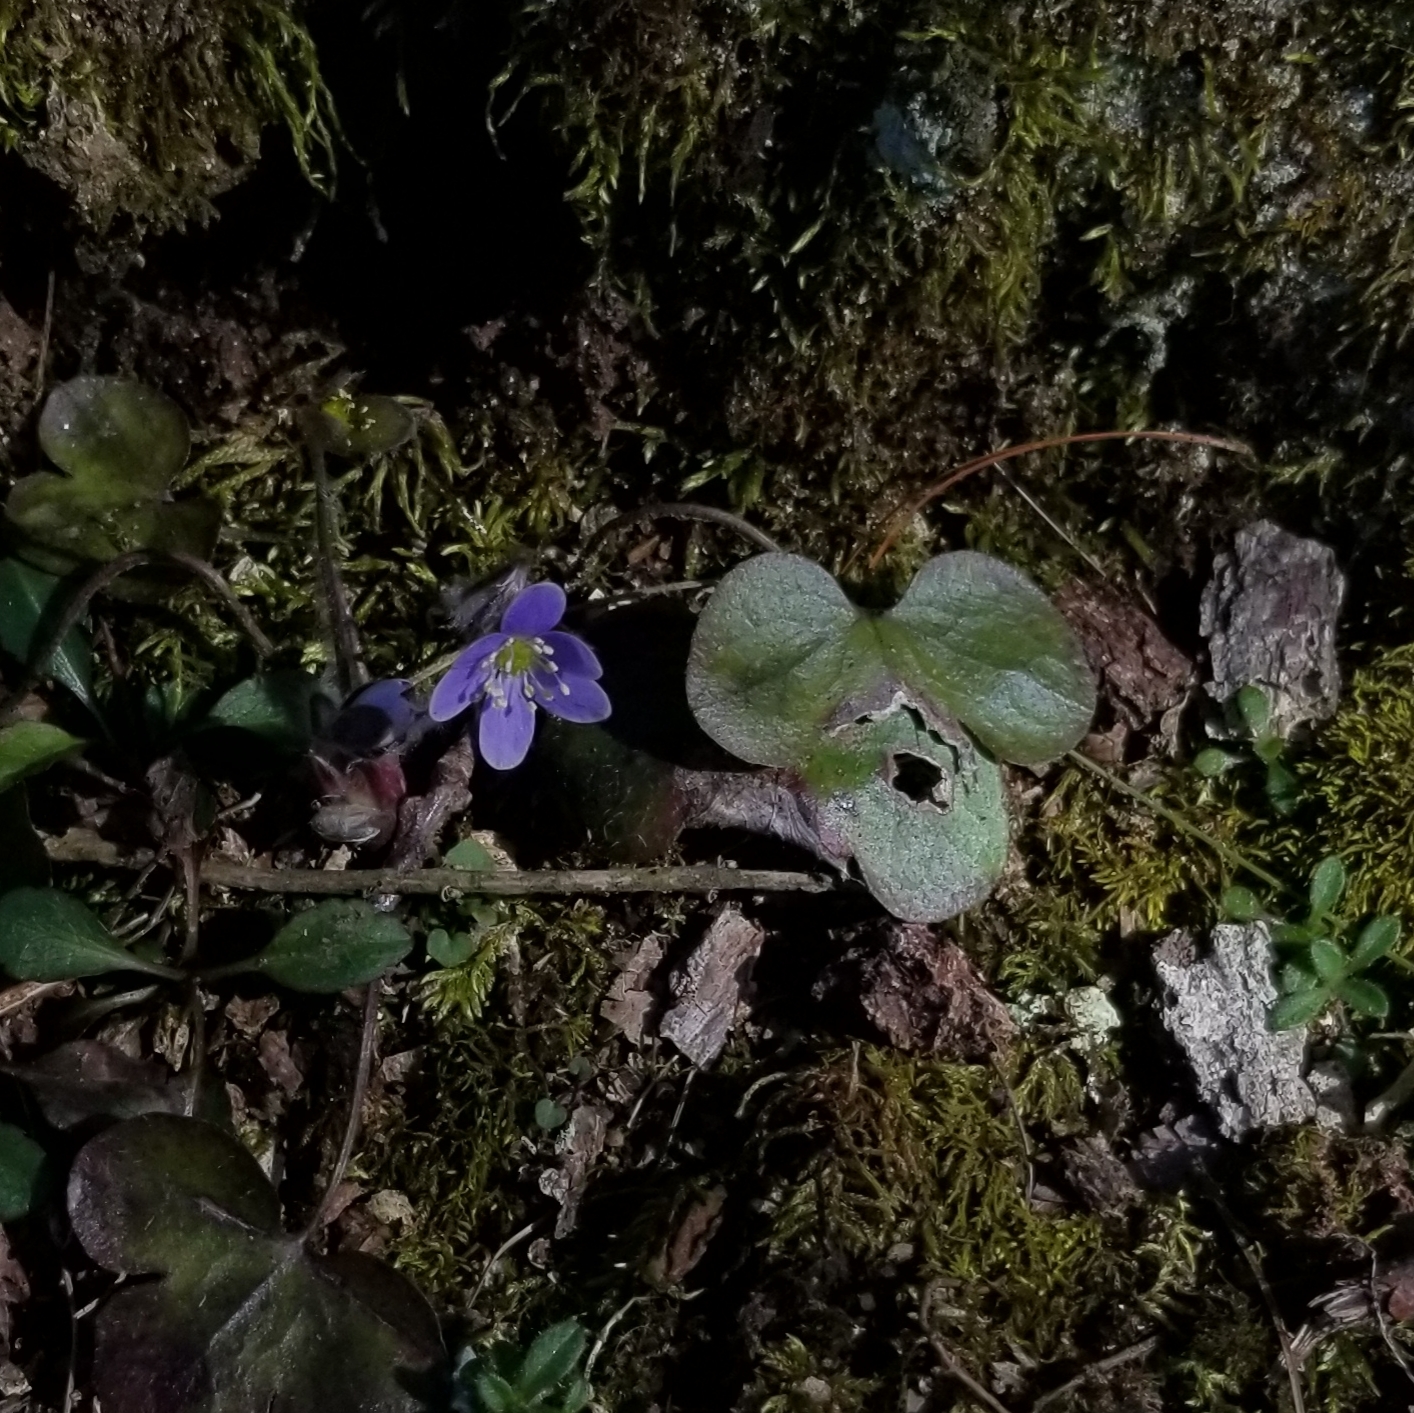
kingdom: Plantae
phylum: Tracheophyta
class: Magnoliopsida
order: Ranunculales
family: Ranunculaceae
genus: Hepatica
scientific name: Hepatica americana
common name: American hepatica
